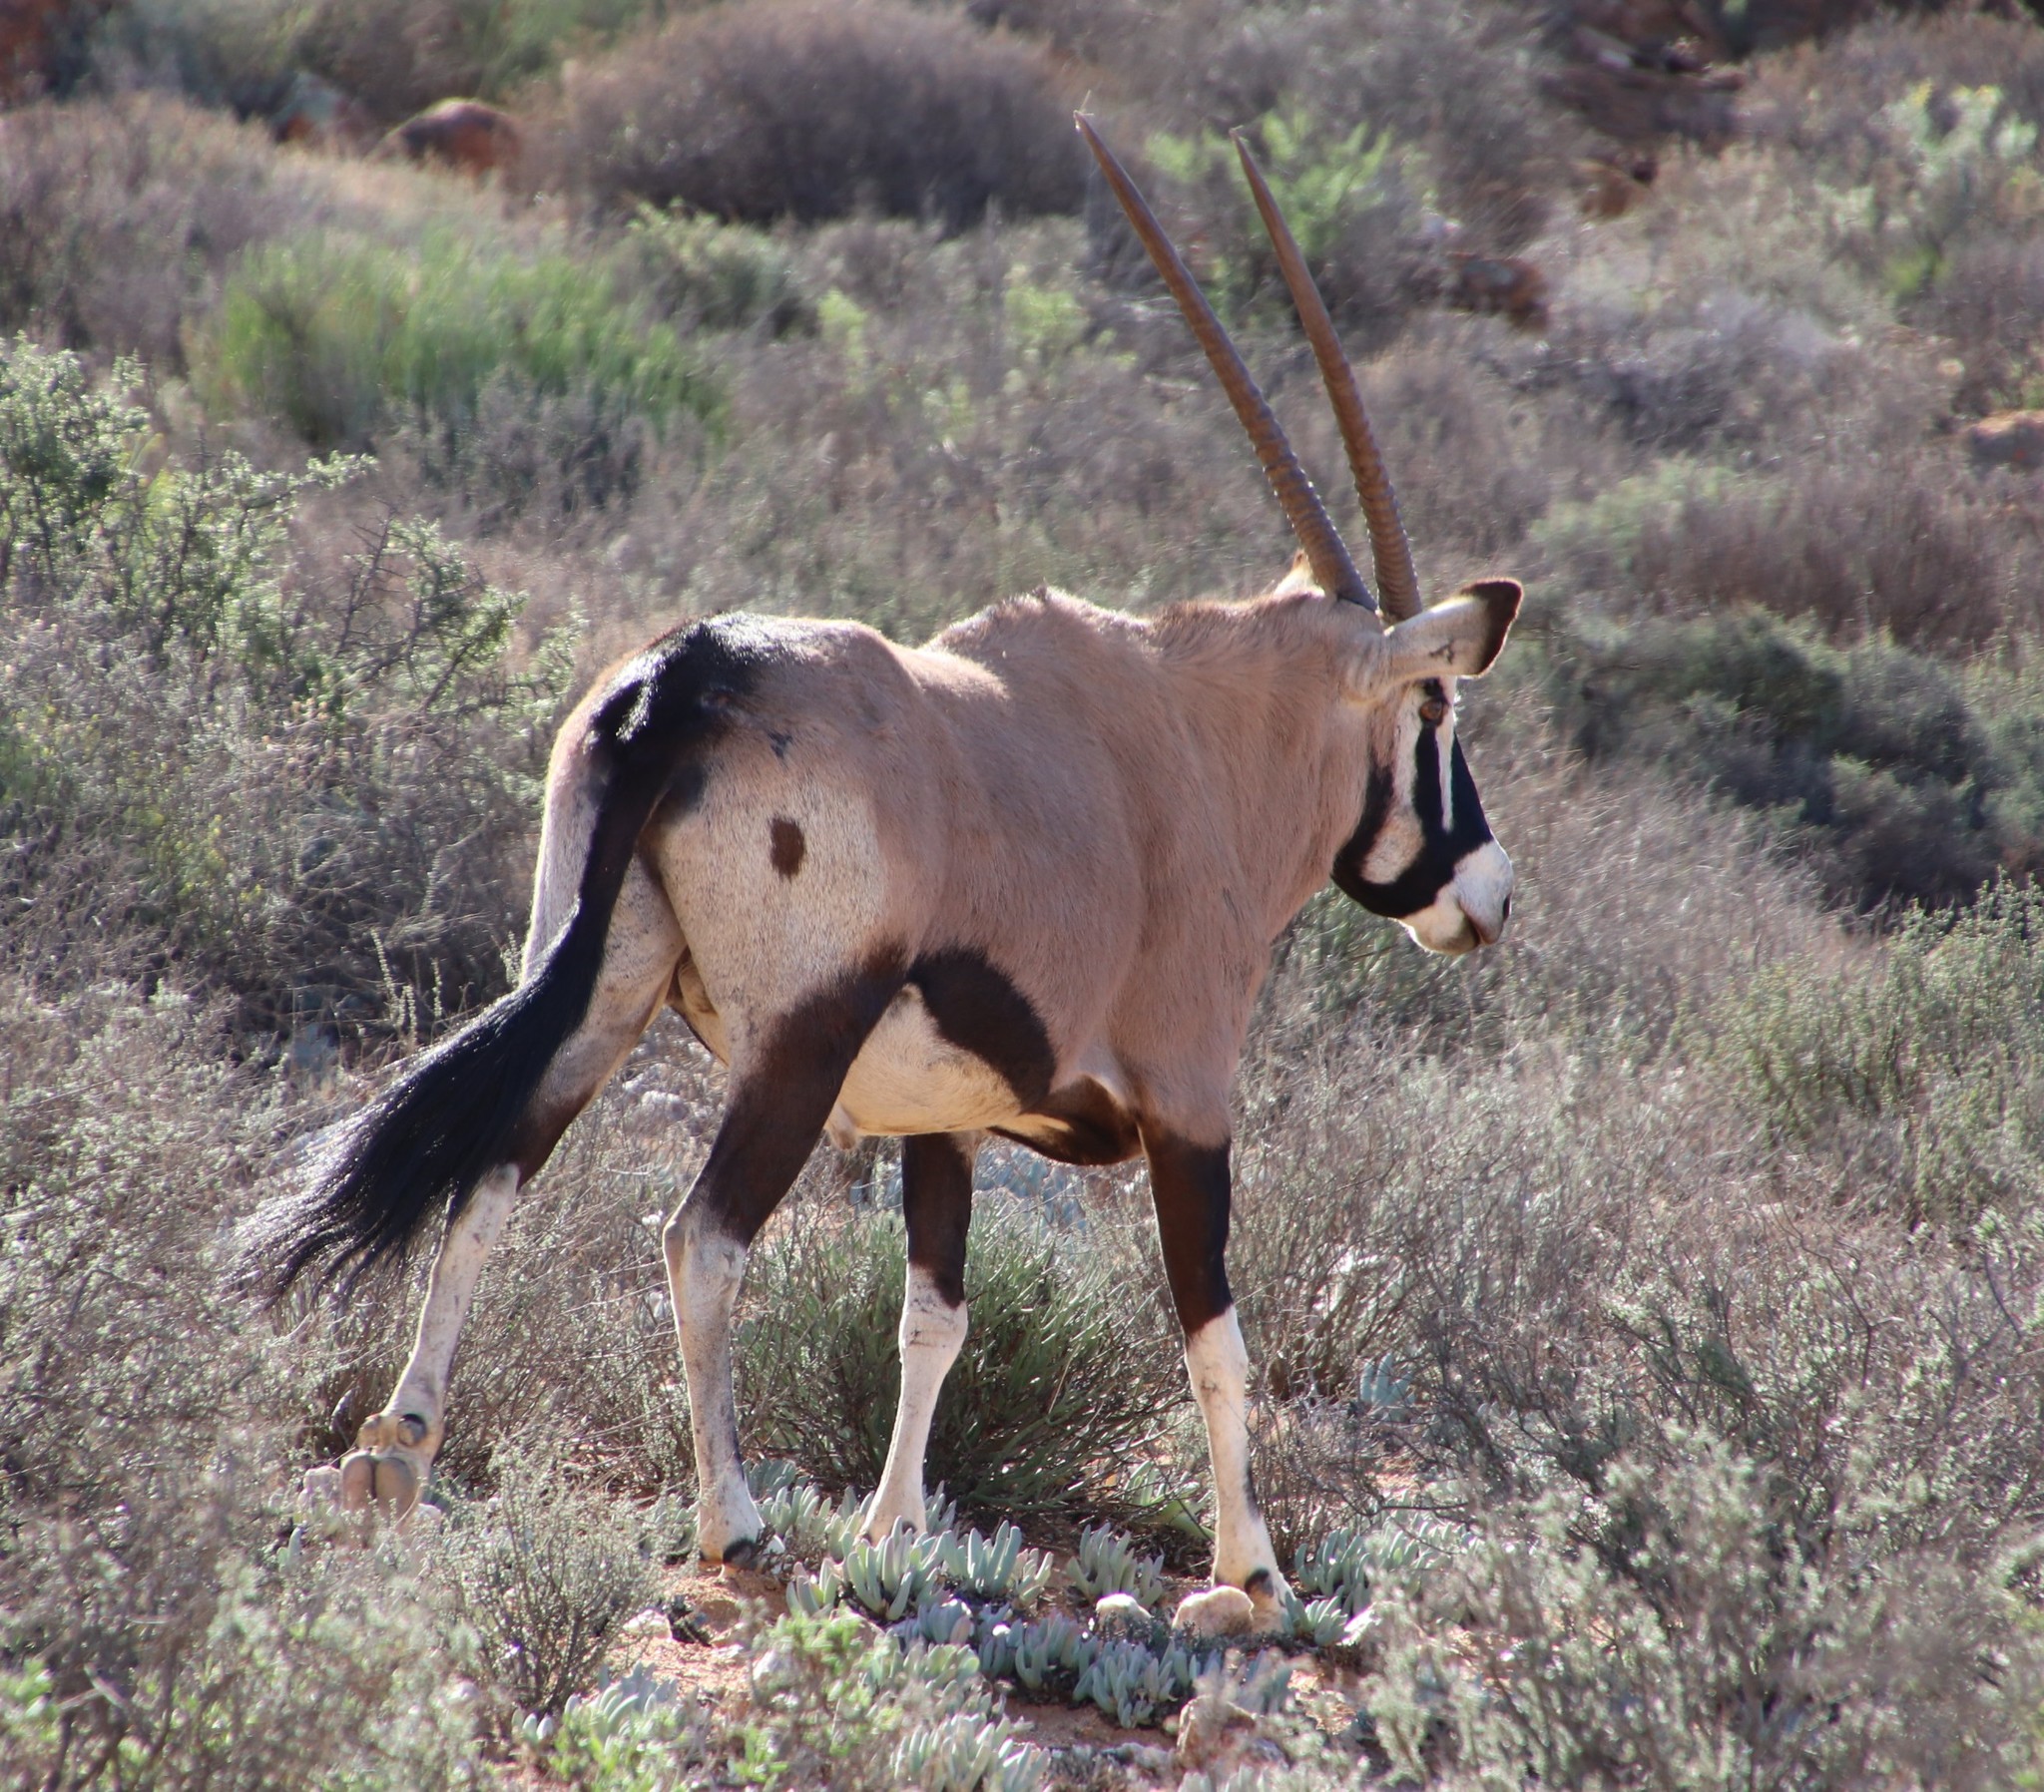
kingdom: Animalia
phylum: Chordata
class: Mammalia
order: Artiodactyla
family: Bovidae
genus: Oryx
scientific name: Oryx gazella
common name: Gemsbok
